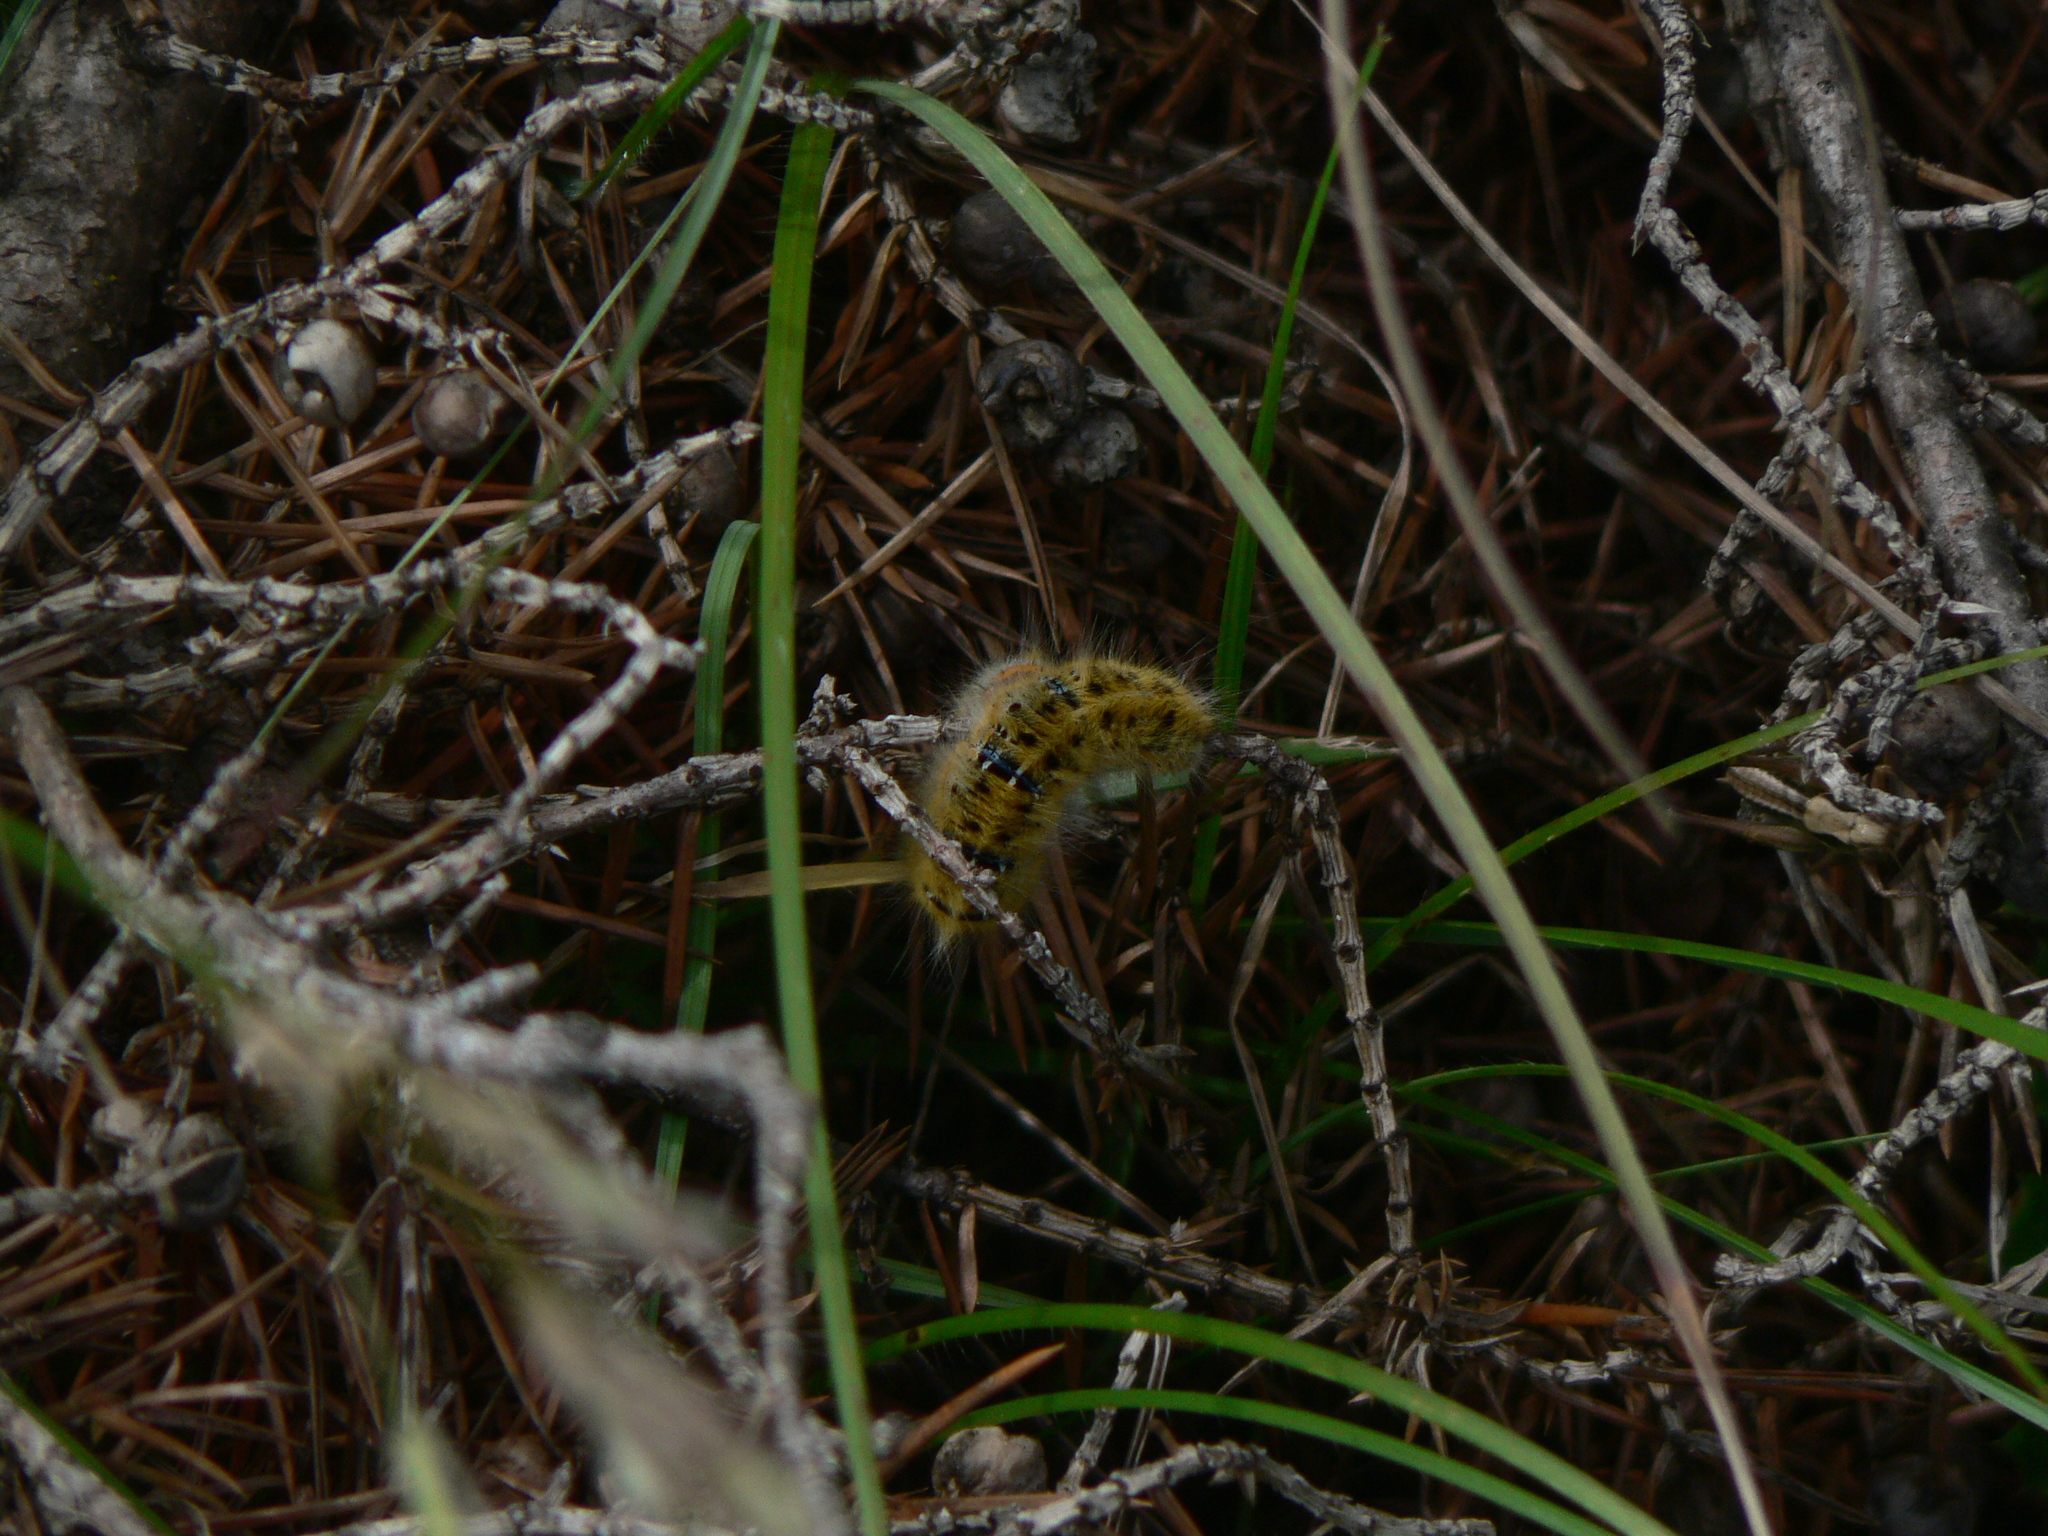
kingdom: Animalia
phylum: Arthropoda
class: Insecta
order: Lepidoptera
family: Lasiocampidae
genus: Lasiocampa
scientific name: Lasiocampa trifolii
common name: Grass eggar
